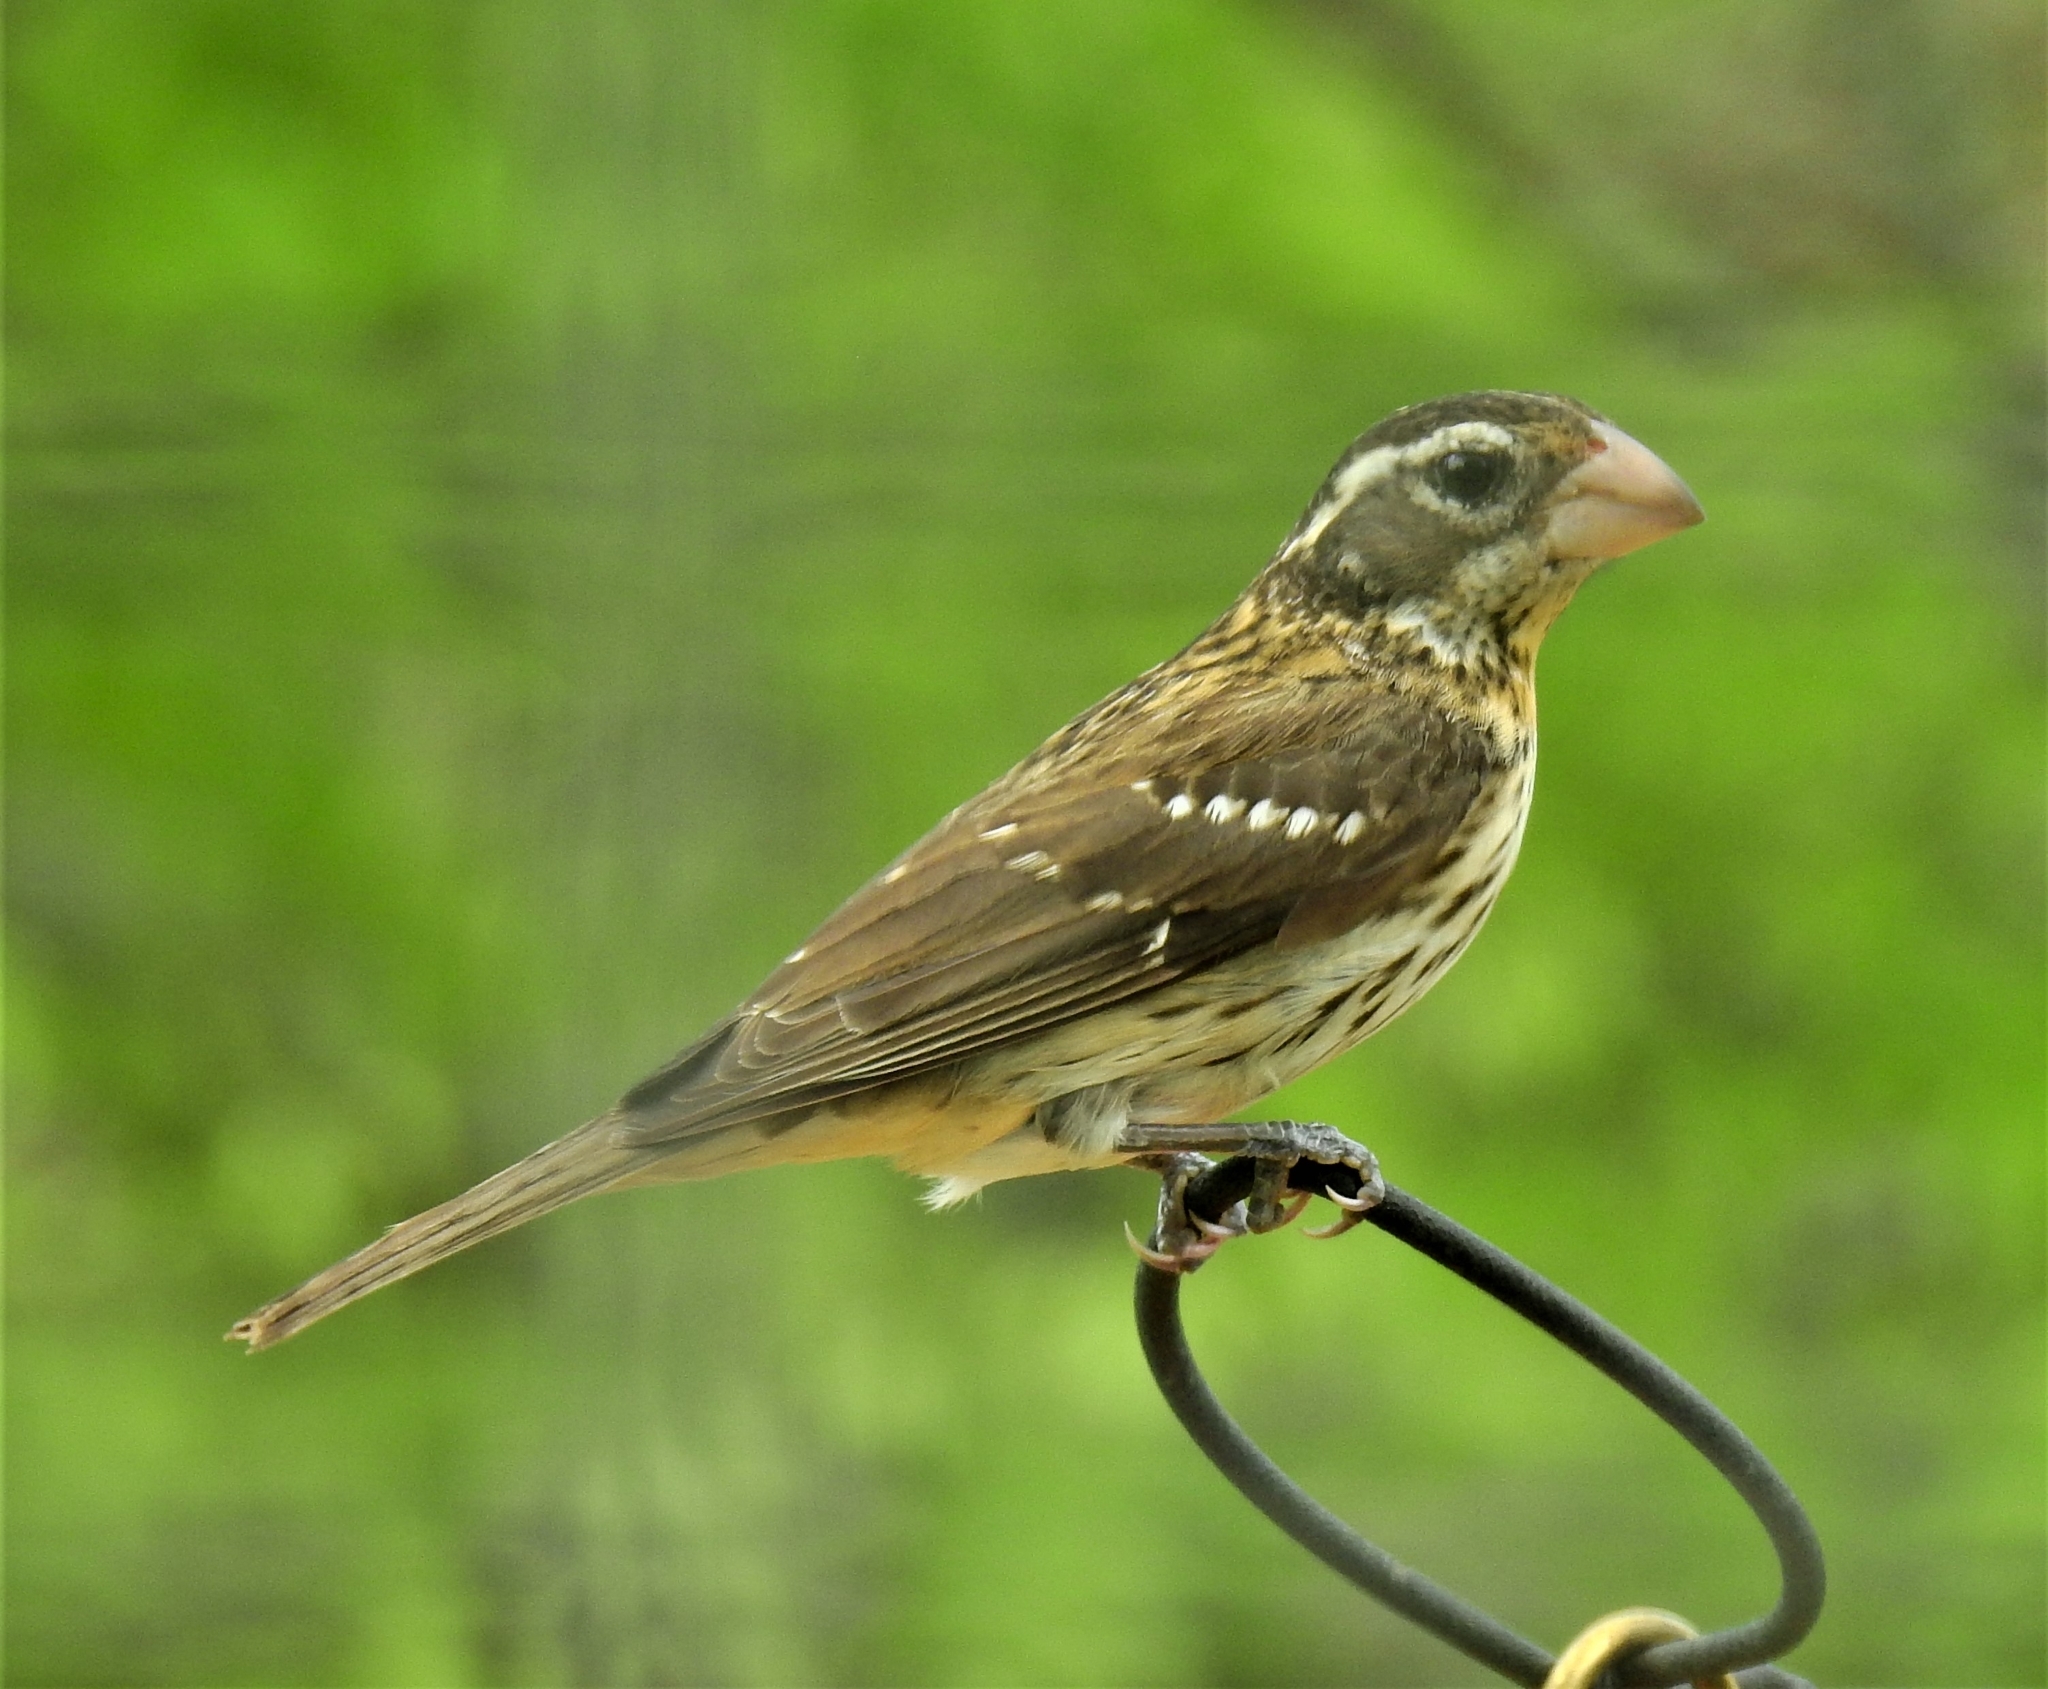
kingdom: Animalia
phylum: Chordata
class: Aves
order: Passeriformes
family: Cardinalidae
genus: Pheucticus
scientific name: Pheucticus ludovicianus
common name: Rose-breasted grosbeak
